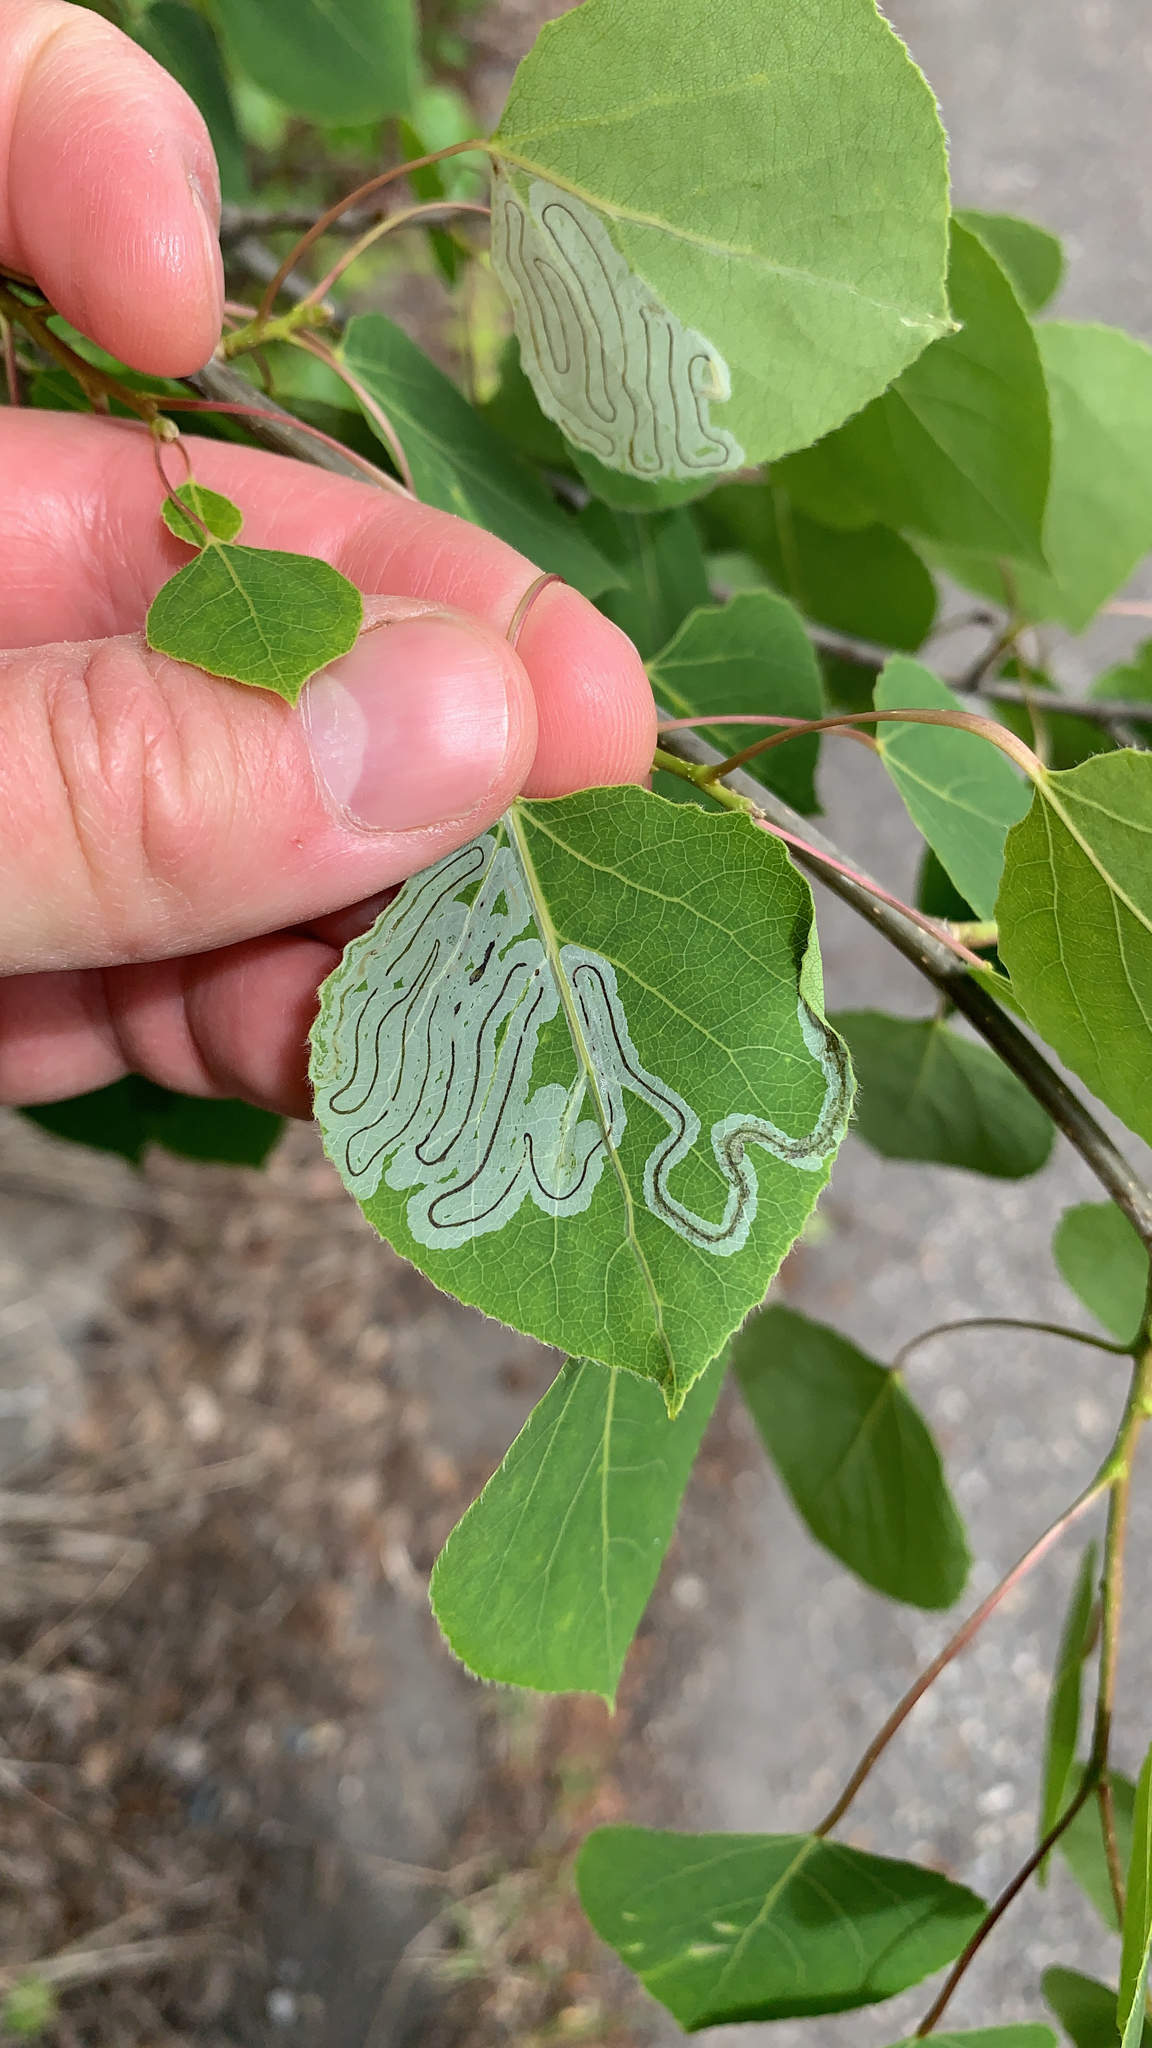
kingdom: Animalia
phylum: Arthropoda
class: Insecta
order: Lepidoptera
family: Gracillariidae
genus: Phyllocnistis
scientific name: Phyllocnistis populiella
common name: Aspen serpentine leafminer moth
